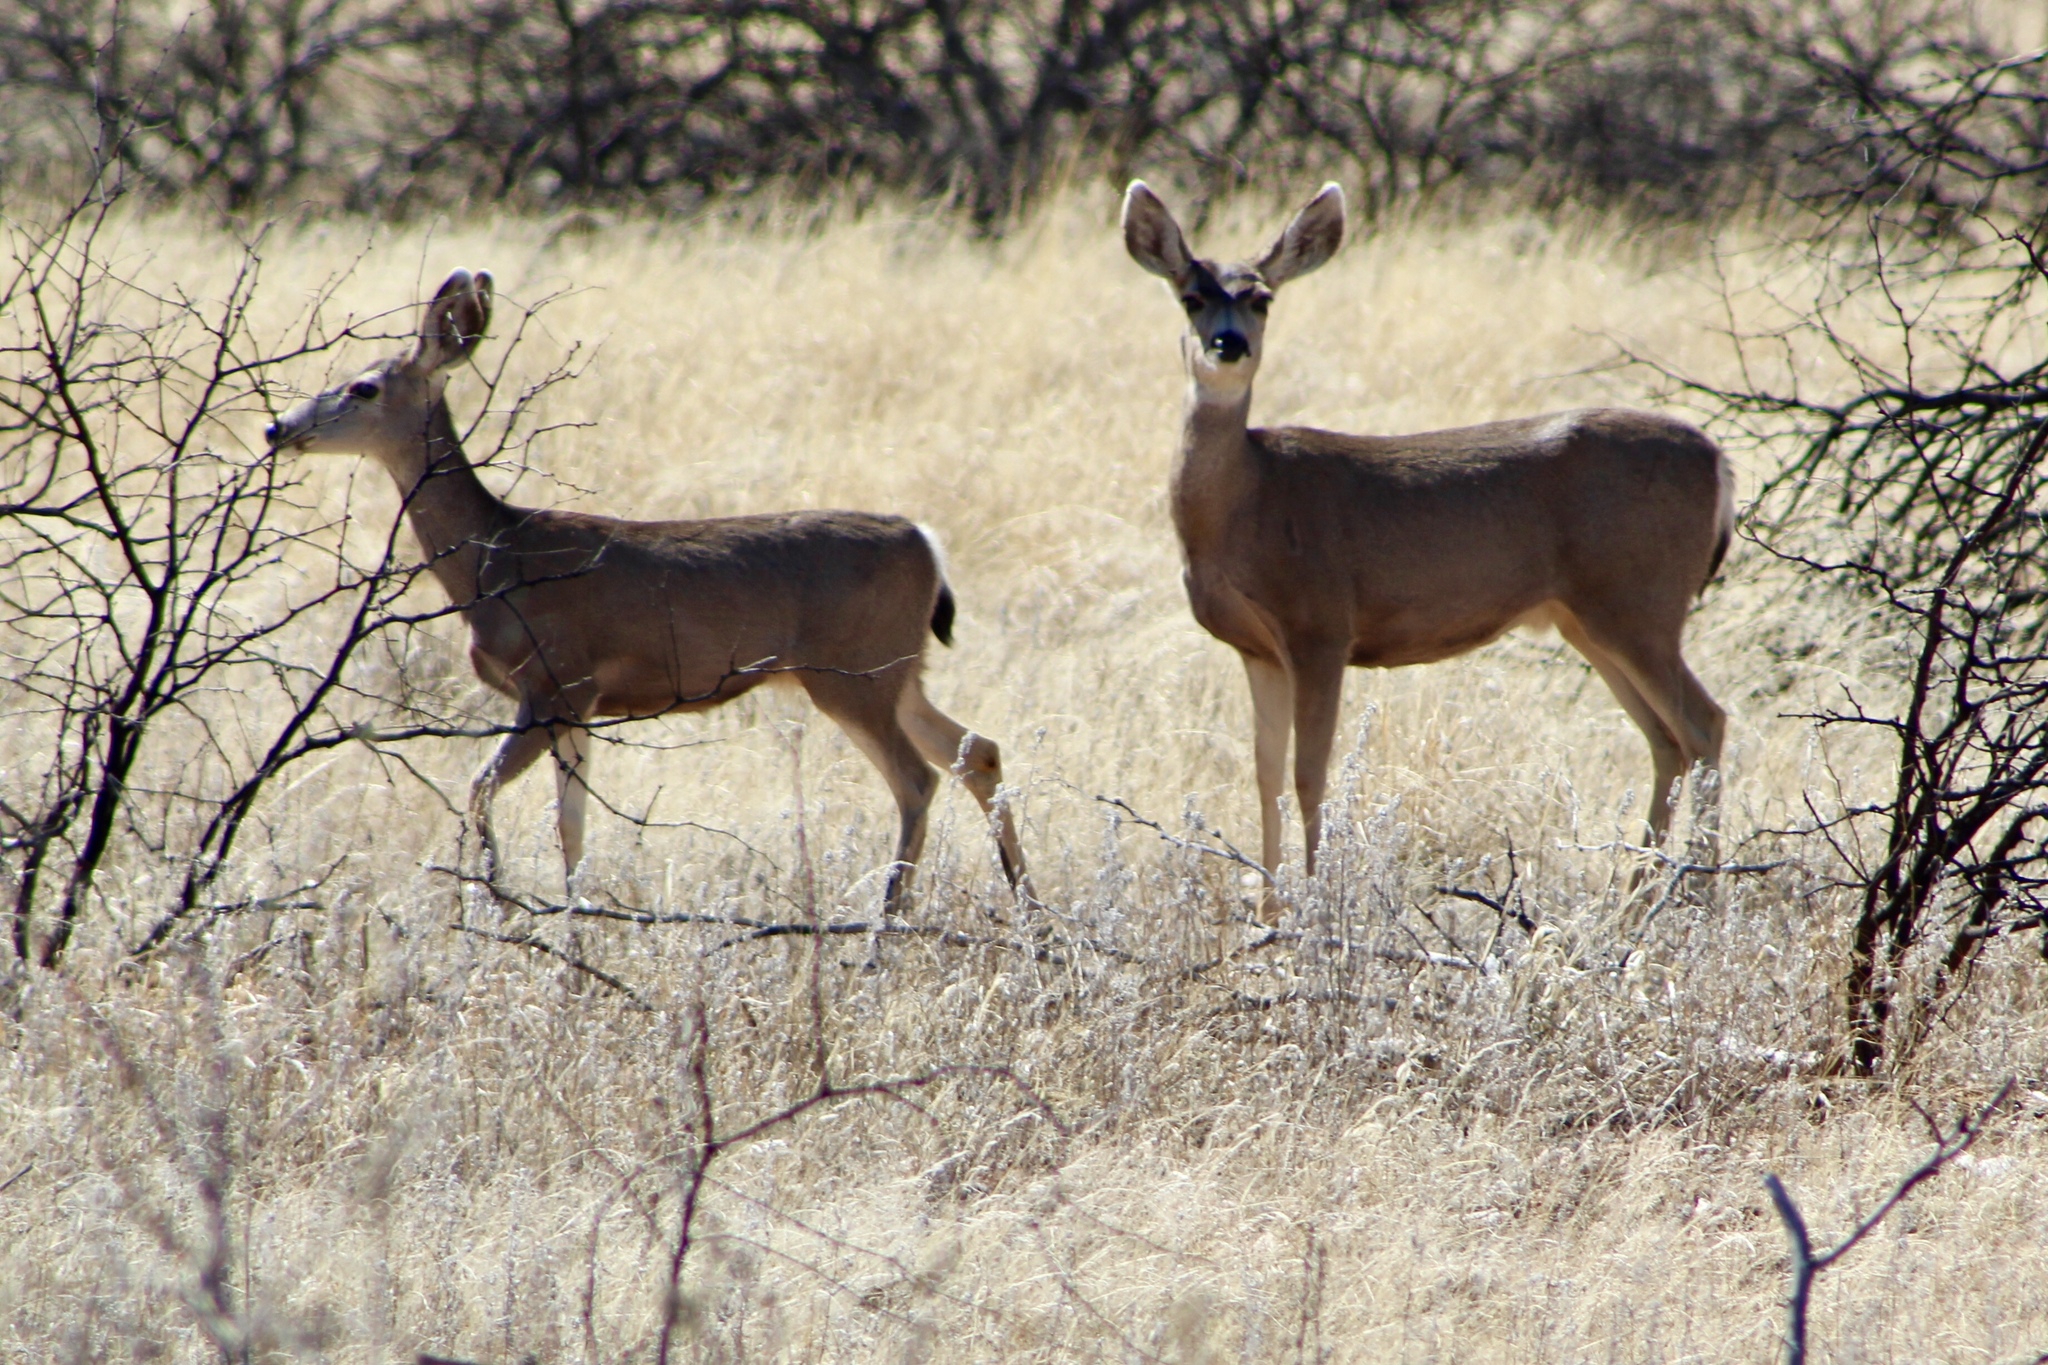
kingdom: Animalia
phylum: Chordata
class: Mammalia
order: Artiodactyla
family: Cervidae
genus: Odocoileus
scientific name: Odocoileus hemionus
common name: Mule deer
